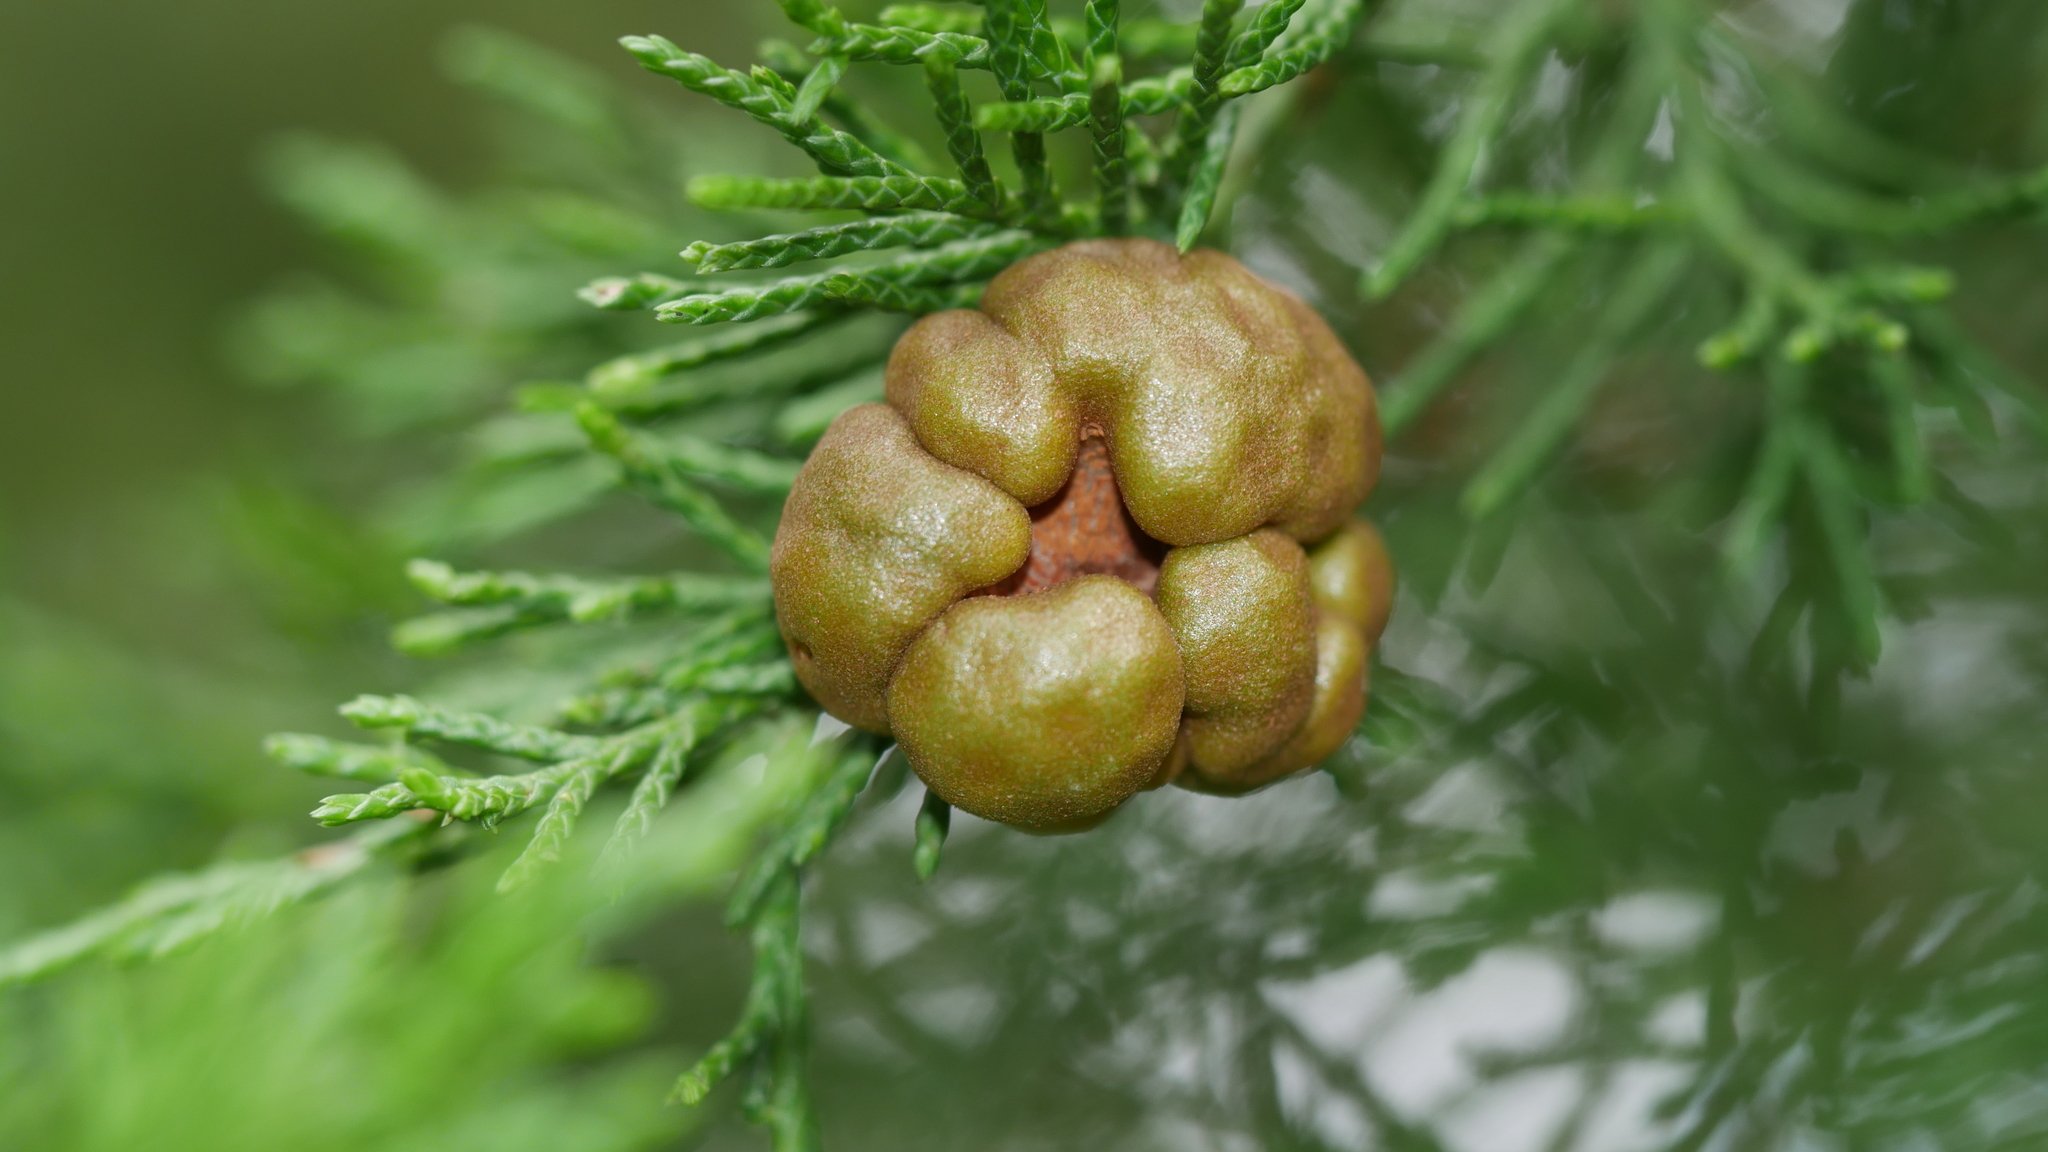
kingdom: Fungi
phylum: Basidiomycota
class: Pucciniomycetes
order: Pucciniales
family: Gymnosporangiaceae
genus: Gymnosporangium
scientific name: Gymnosporangium juniperi-virginianae
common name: Juniper-apple rust
